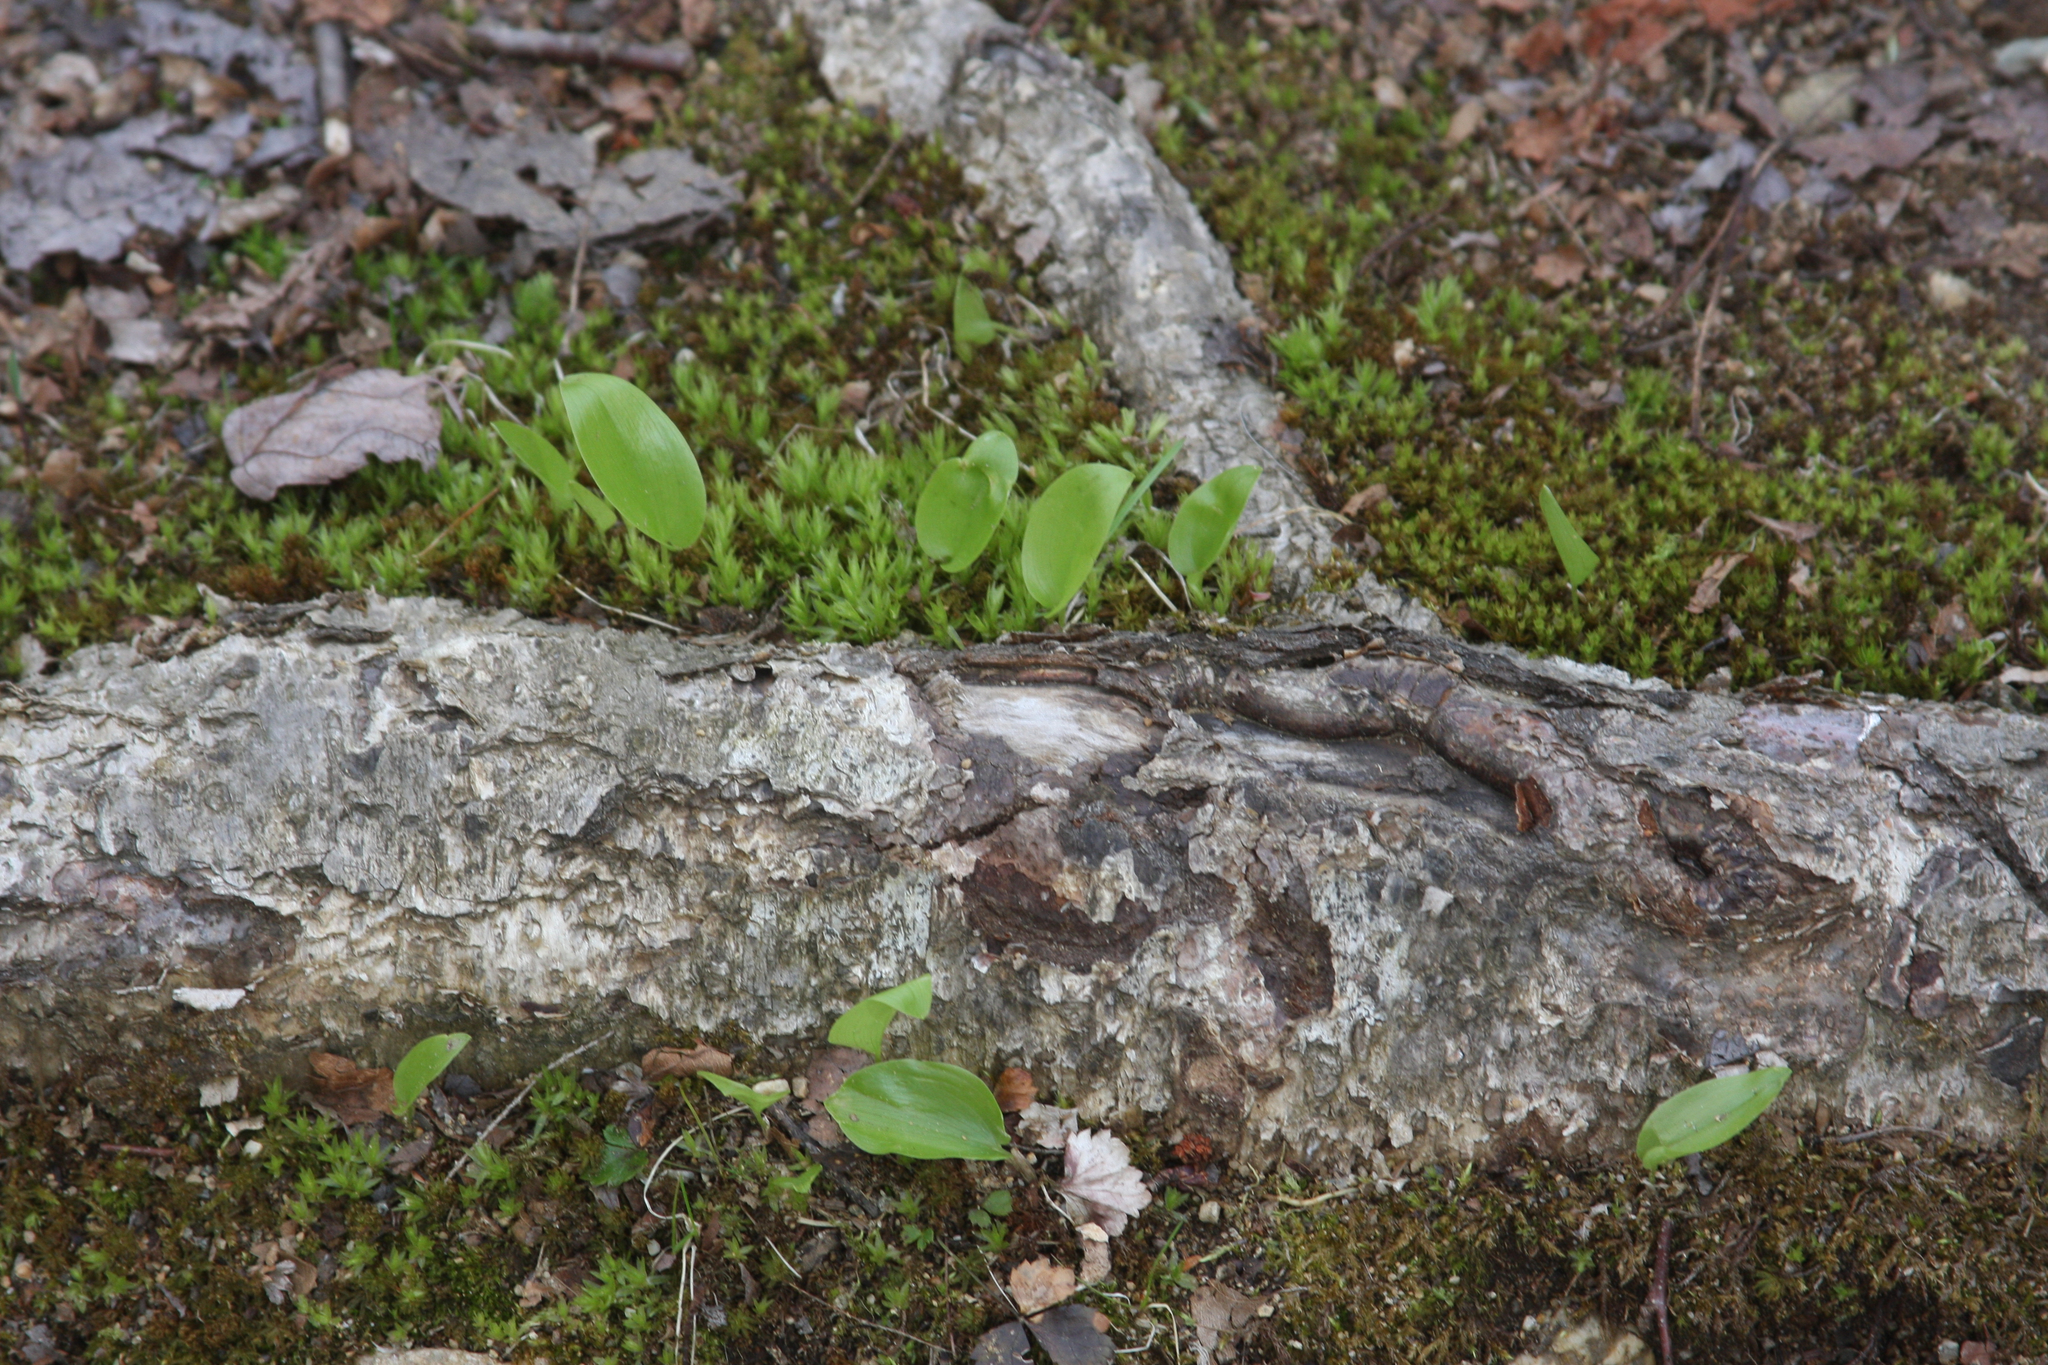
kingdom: Plantae
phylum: Tracheophyta
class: Liliopsida
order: Asparagales
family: Asparagaceae
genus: Maianthemum
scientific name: Maianthemum canadense
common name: False lily-of-the-valley
